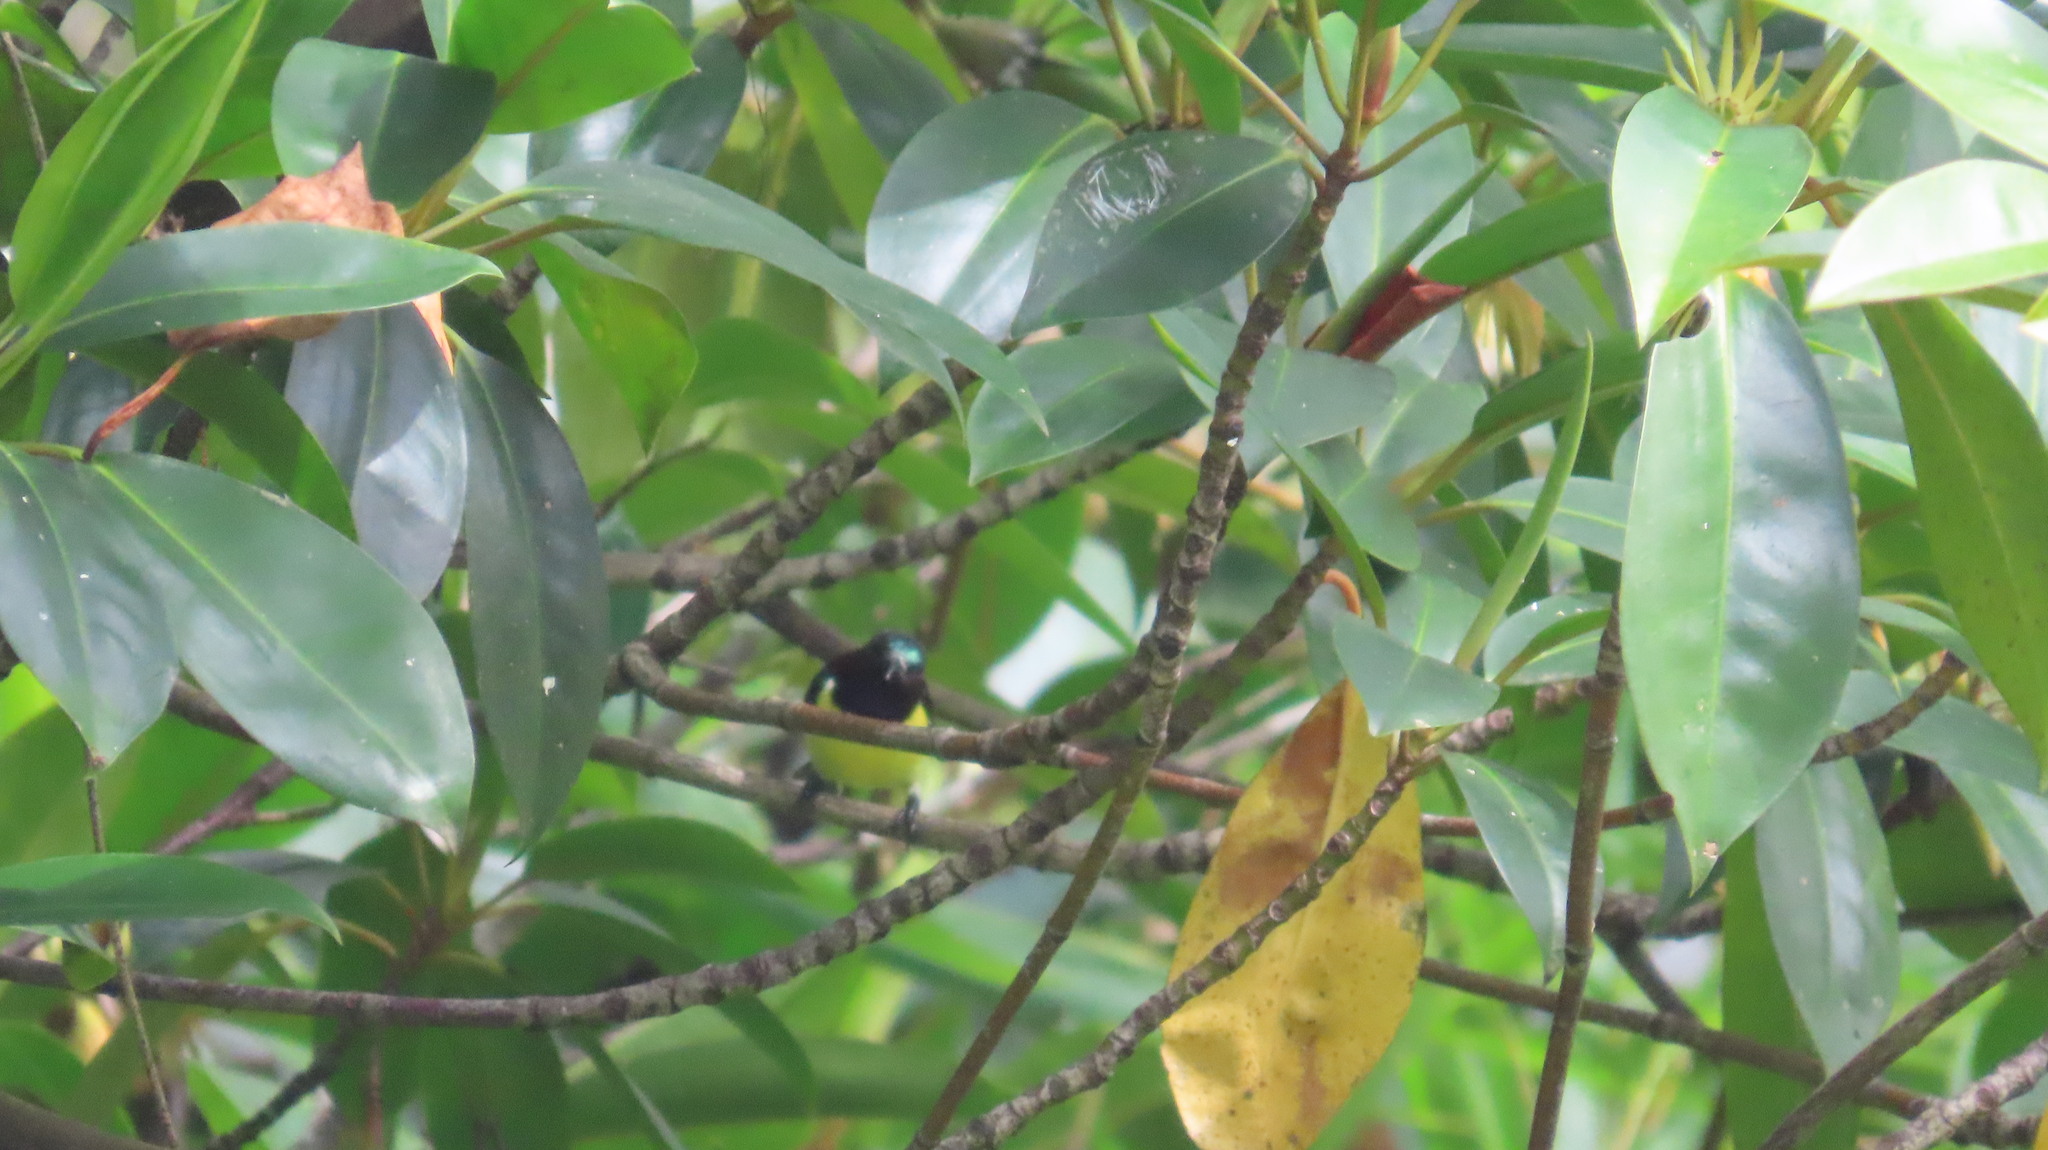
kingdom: Animalia
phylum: Chordata
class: Aves
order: Passeriformes
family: Nectariniidae
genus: Leptocoma
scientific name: Leptocoma zeylonica
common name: Purple-rumped sunbird
